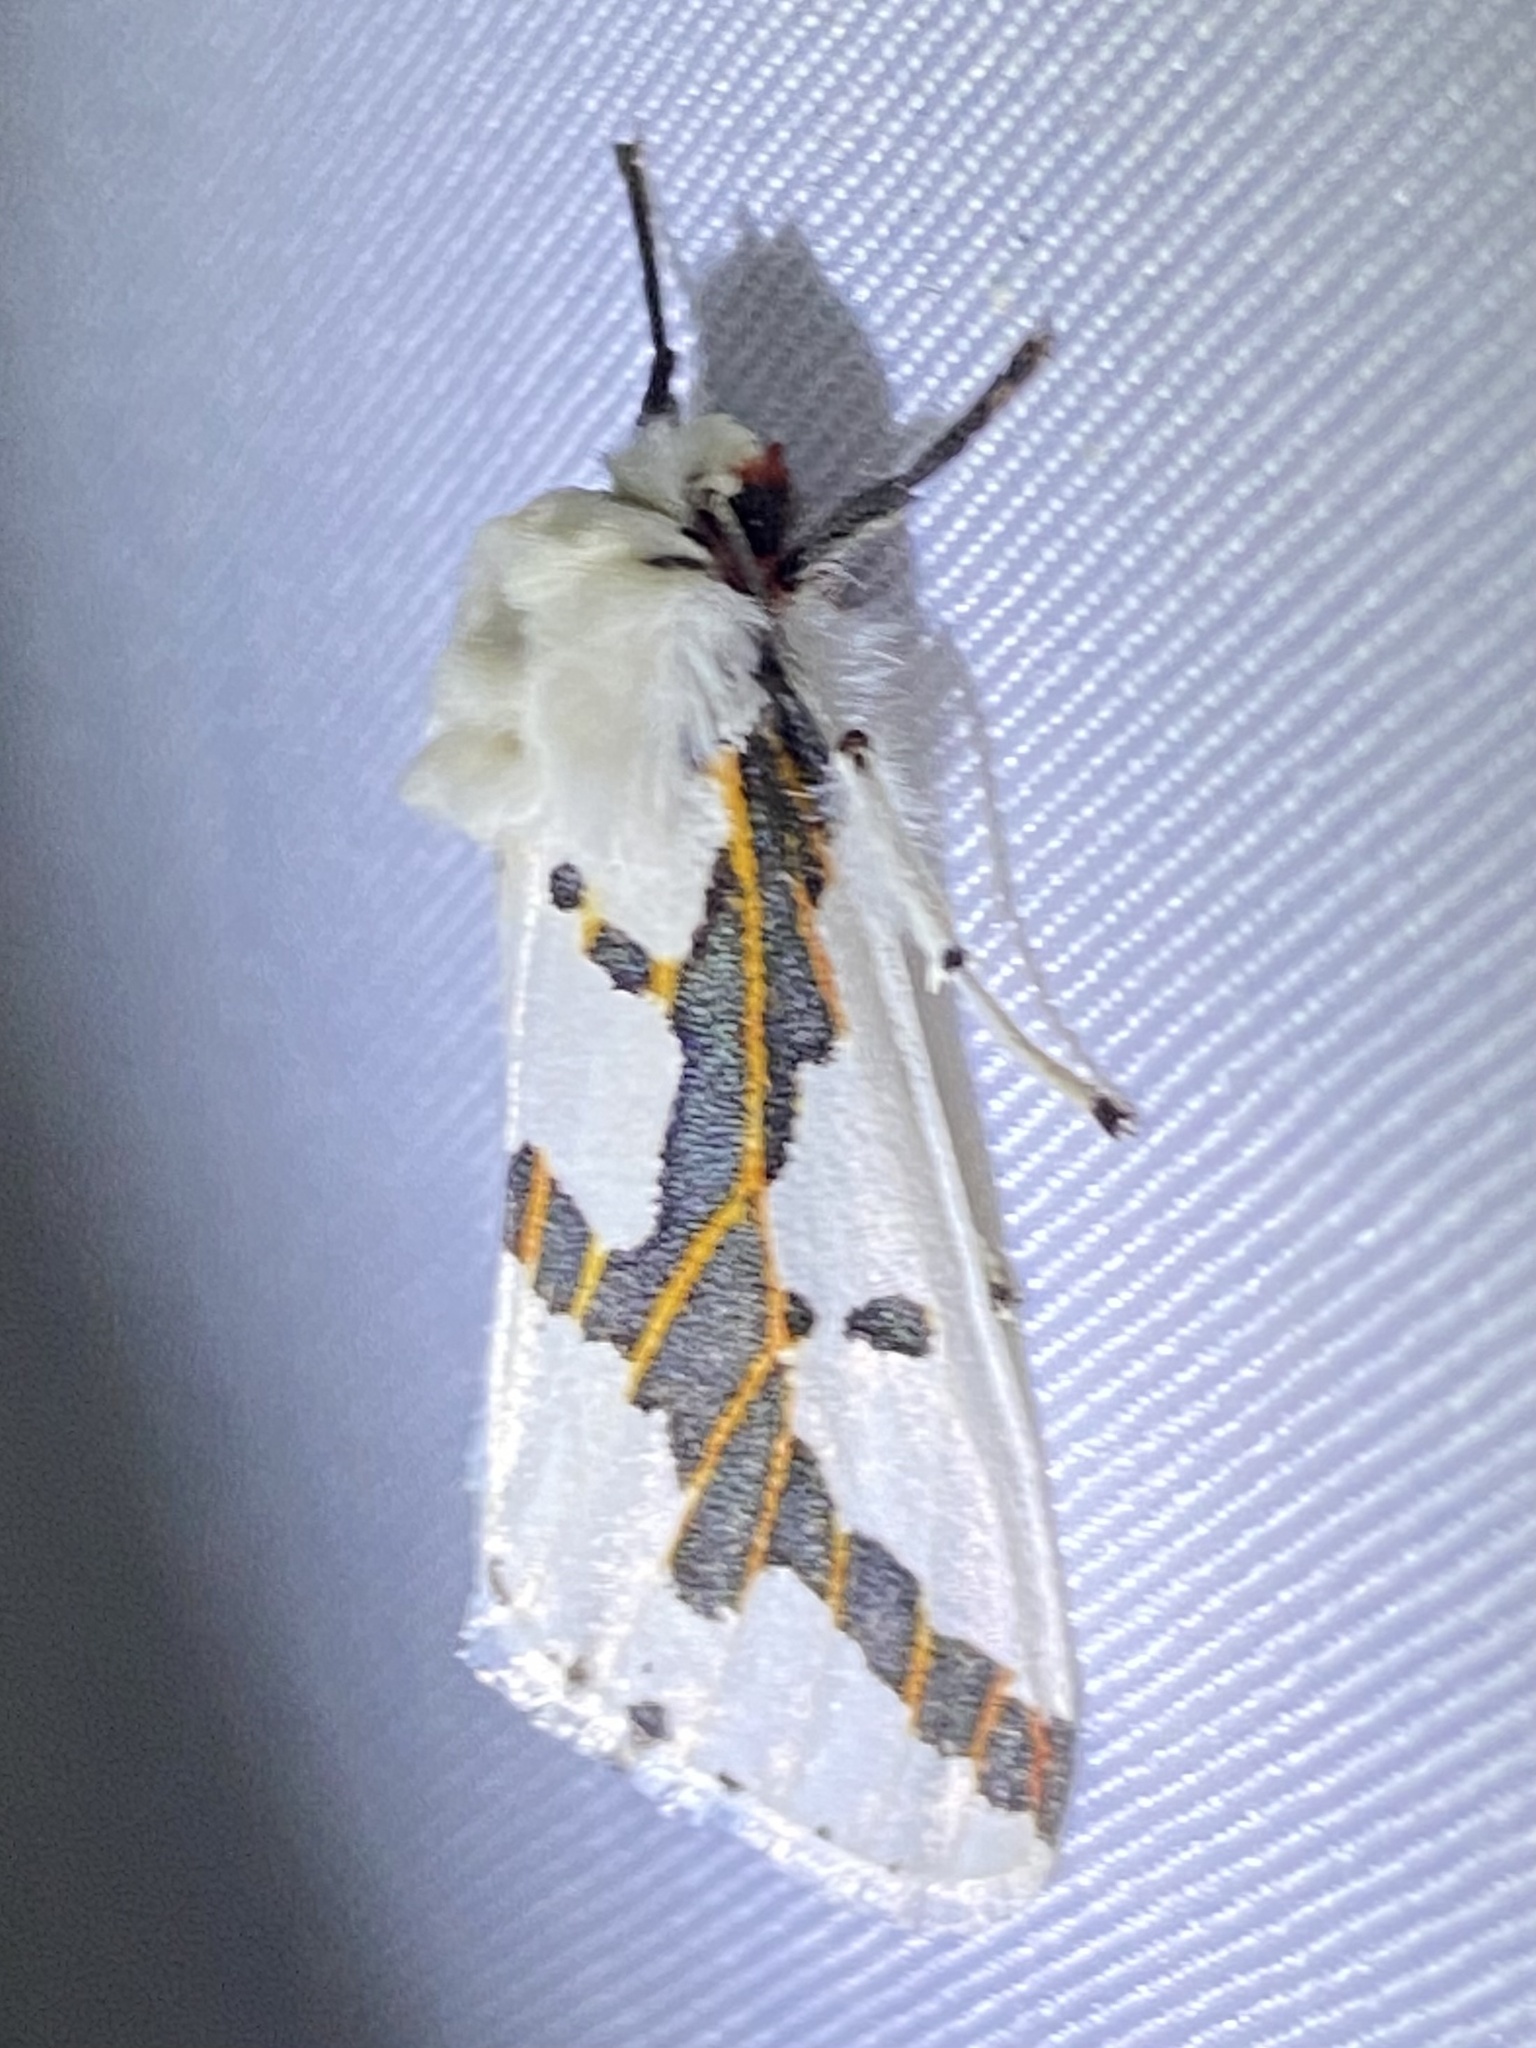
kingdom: Animalia
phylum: Arthropoda
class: Insecta
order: Lepidoptera
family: Erebidae
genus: Euerythra
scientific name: Euerythra phasma
